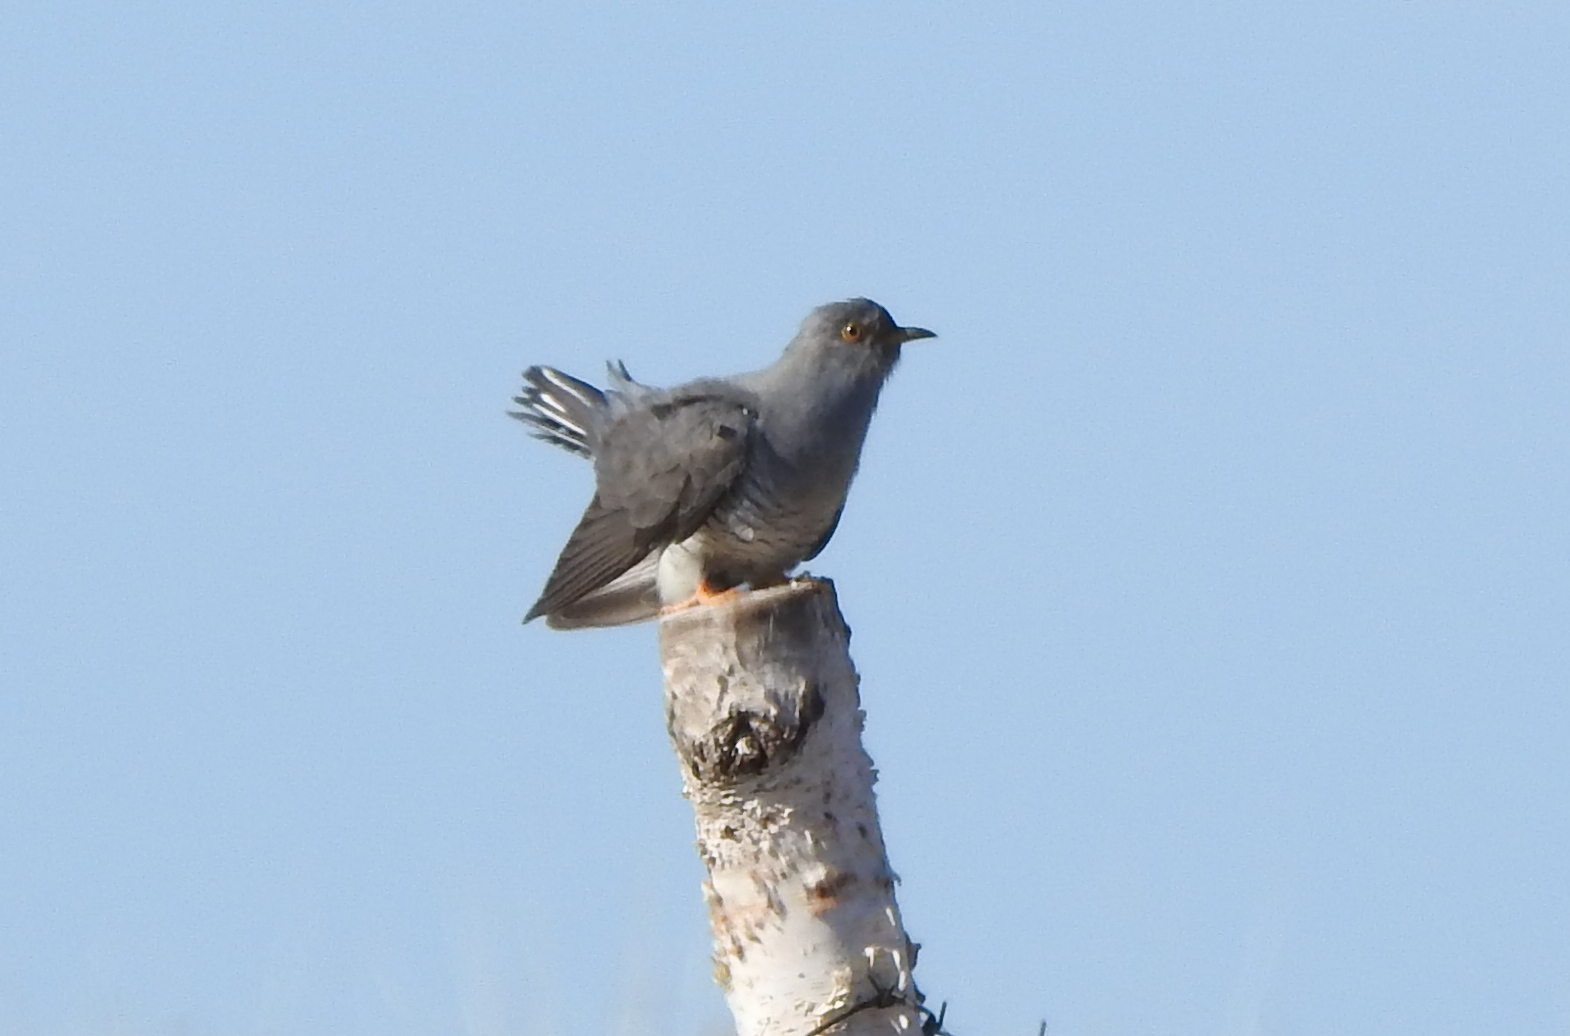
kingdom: Animalia
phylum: Chordata
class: Aves
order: Cuculiformes
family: Cuculidae
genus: Cuculus
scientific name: Cuculus canorus
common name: Common cuckoo
